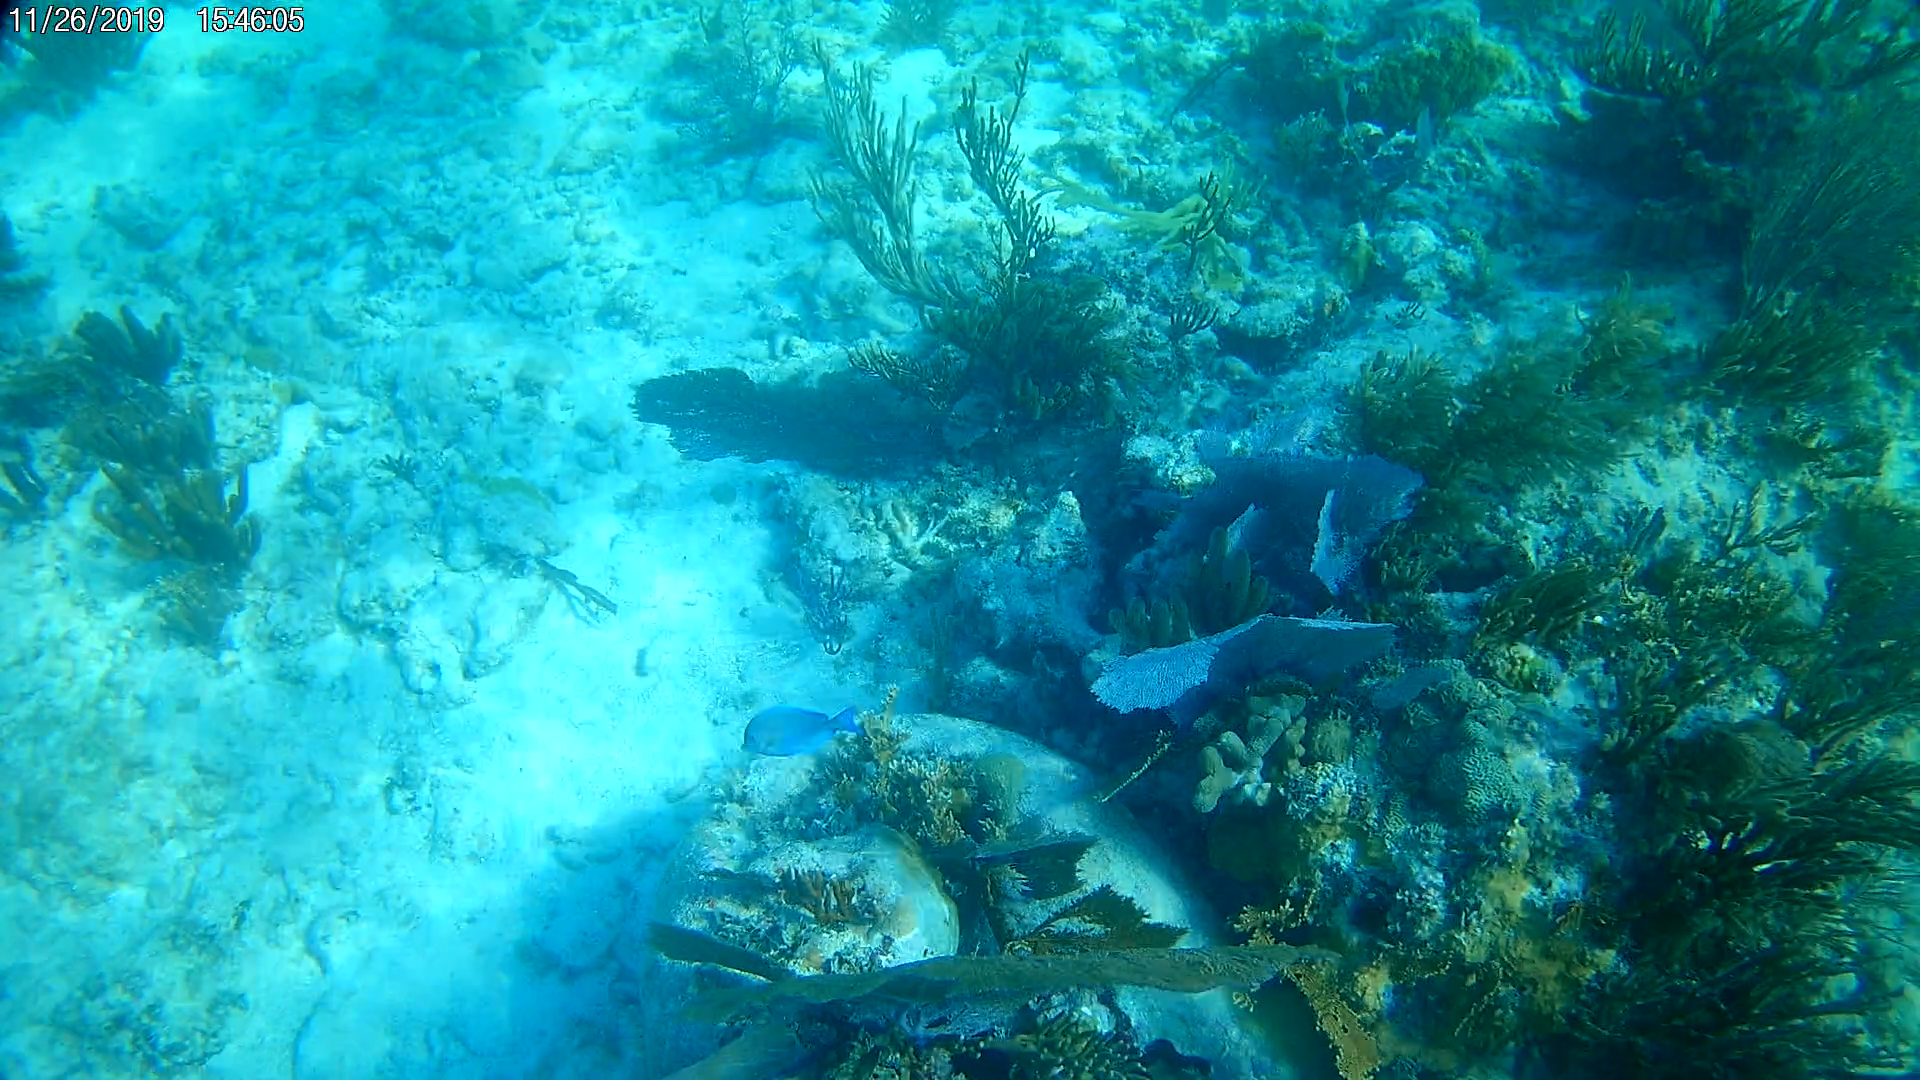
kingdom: Animalia
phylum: Chordata
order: Perciformes
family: Acanthuridae
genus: Acanthurus
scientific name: Acanthurus coeruleus
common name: Blue tang
